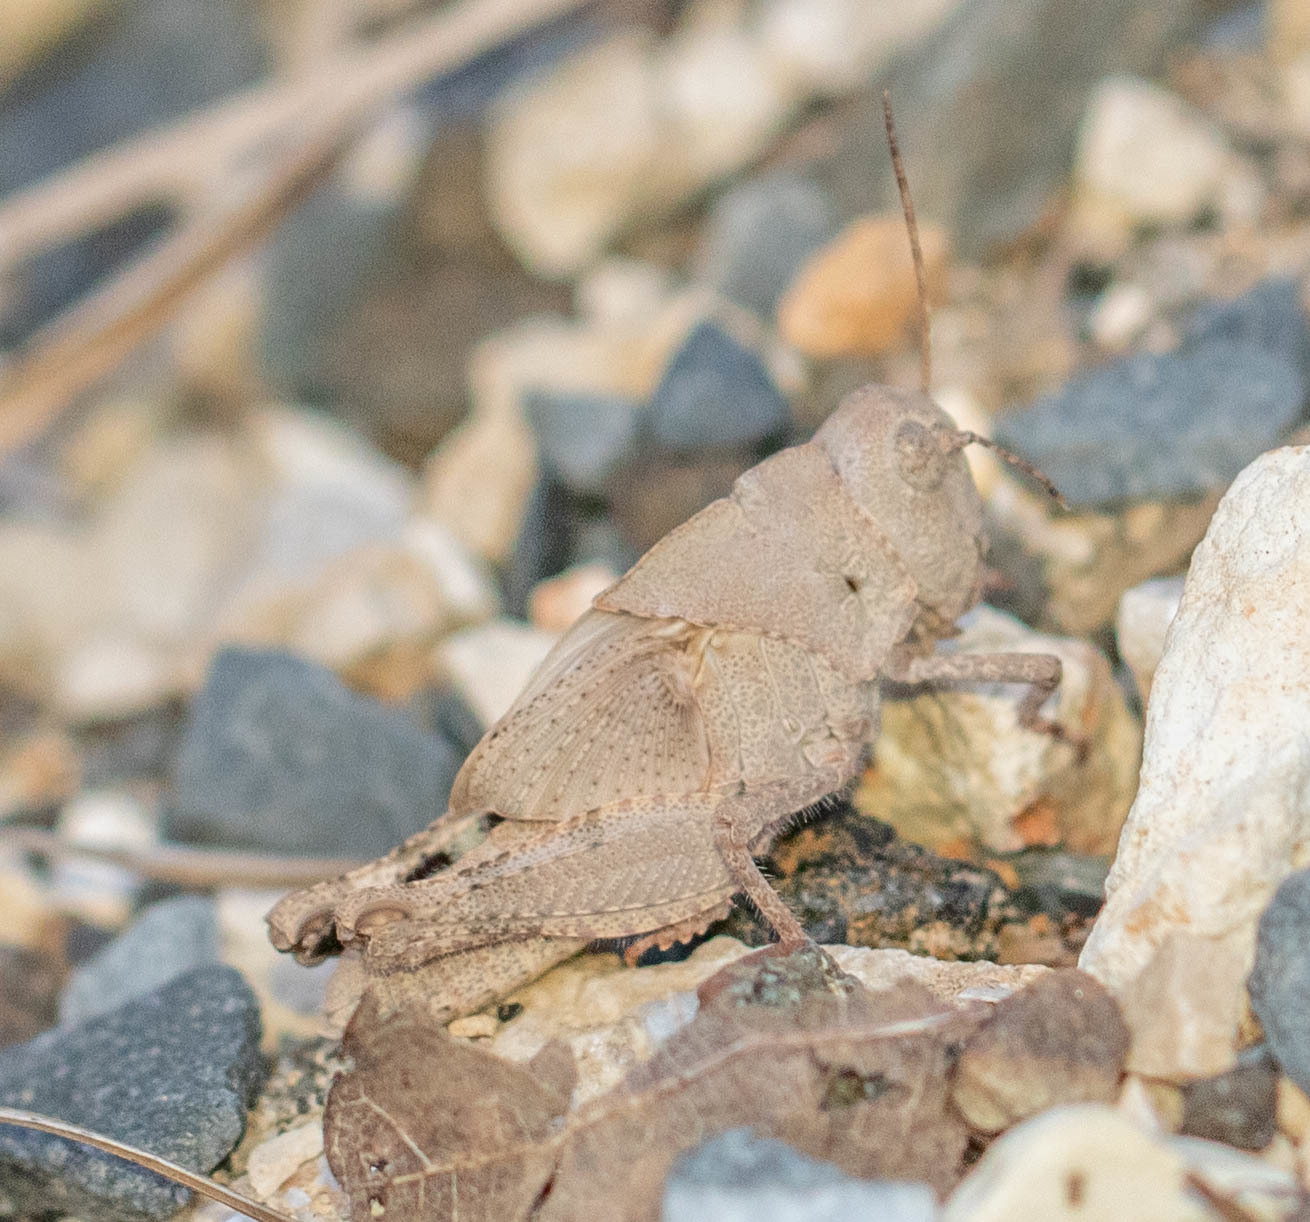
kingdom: Animalia
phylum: Arthropoda
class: Insecta
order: Orthoptera
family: Acrididae
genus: Dissosteira
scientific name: Dissosteira carolina
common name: Carolina grasshopper
